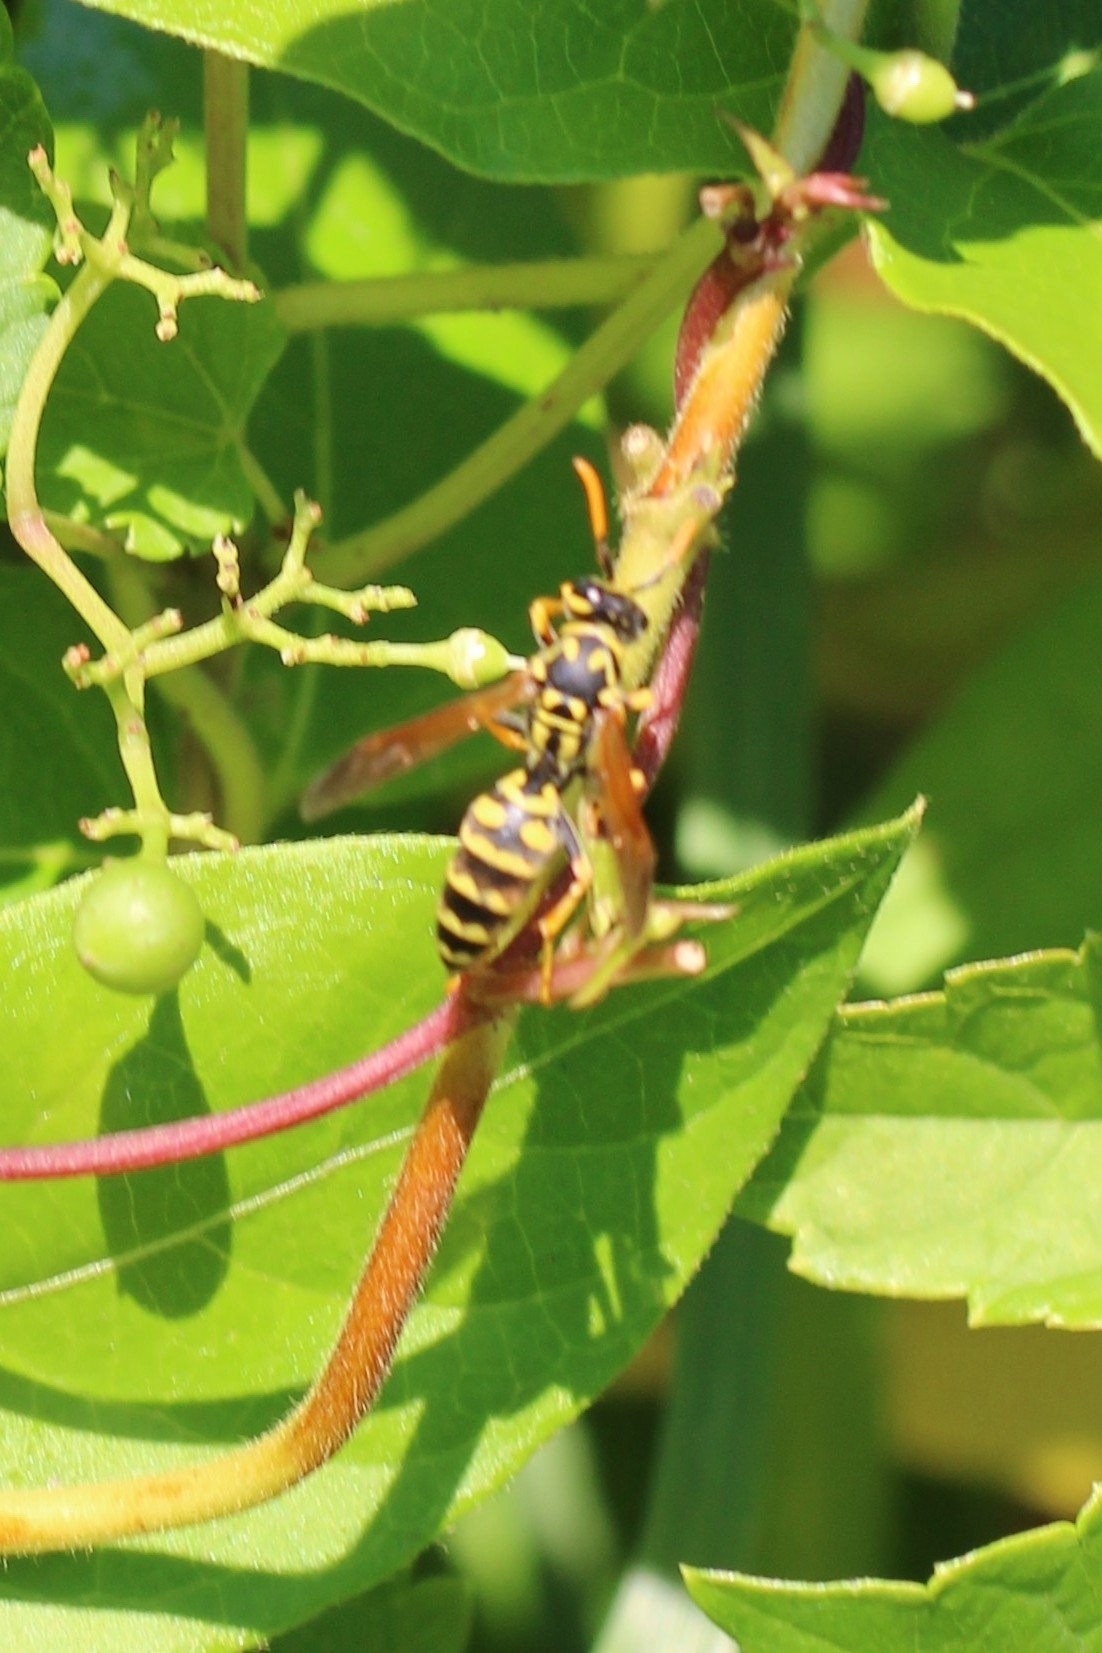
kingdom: Animalia
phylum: Arthropoda
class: Insecta
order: Hymenoptera
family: Eumenidae
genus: Polistes
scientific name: Polistes dominula
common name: Paper wasp
